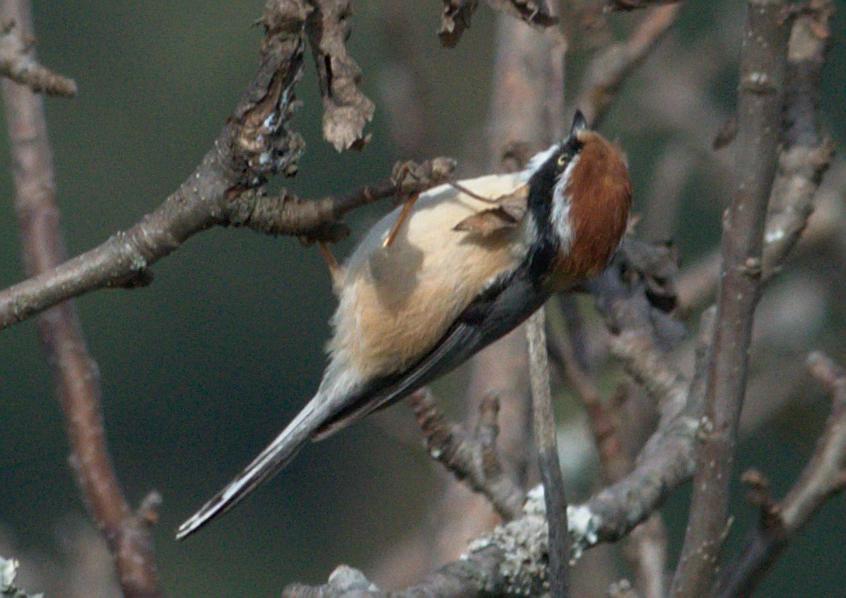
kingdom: Animalia
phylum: Chordata
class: Aves
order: Passeriformes
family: Aegithalidae
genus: Aegithalos
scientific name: Aegithalos concinnus
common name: Black-throated bushtit
